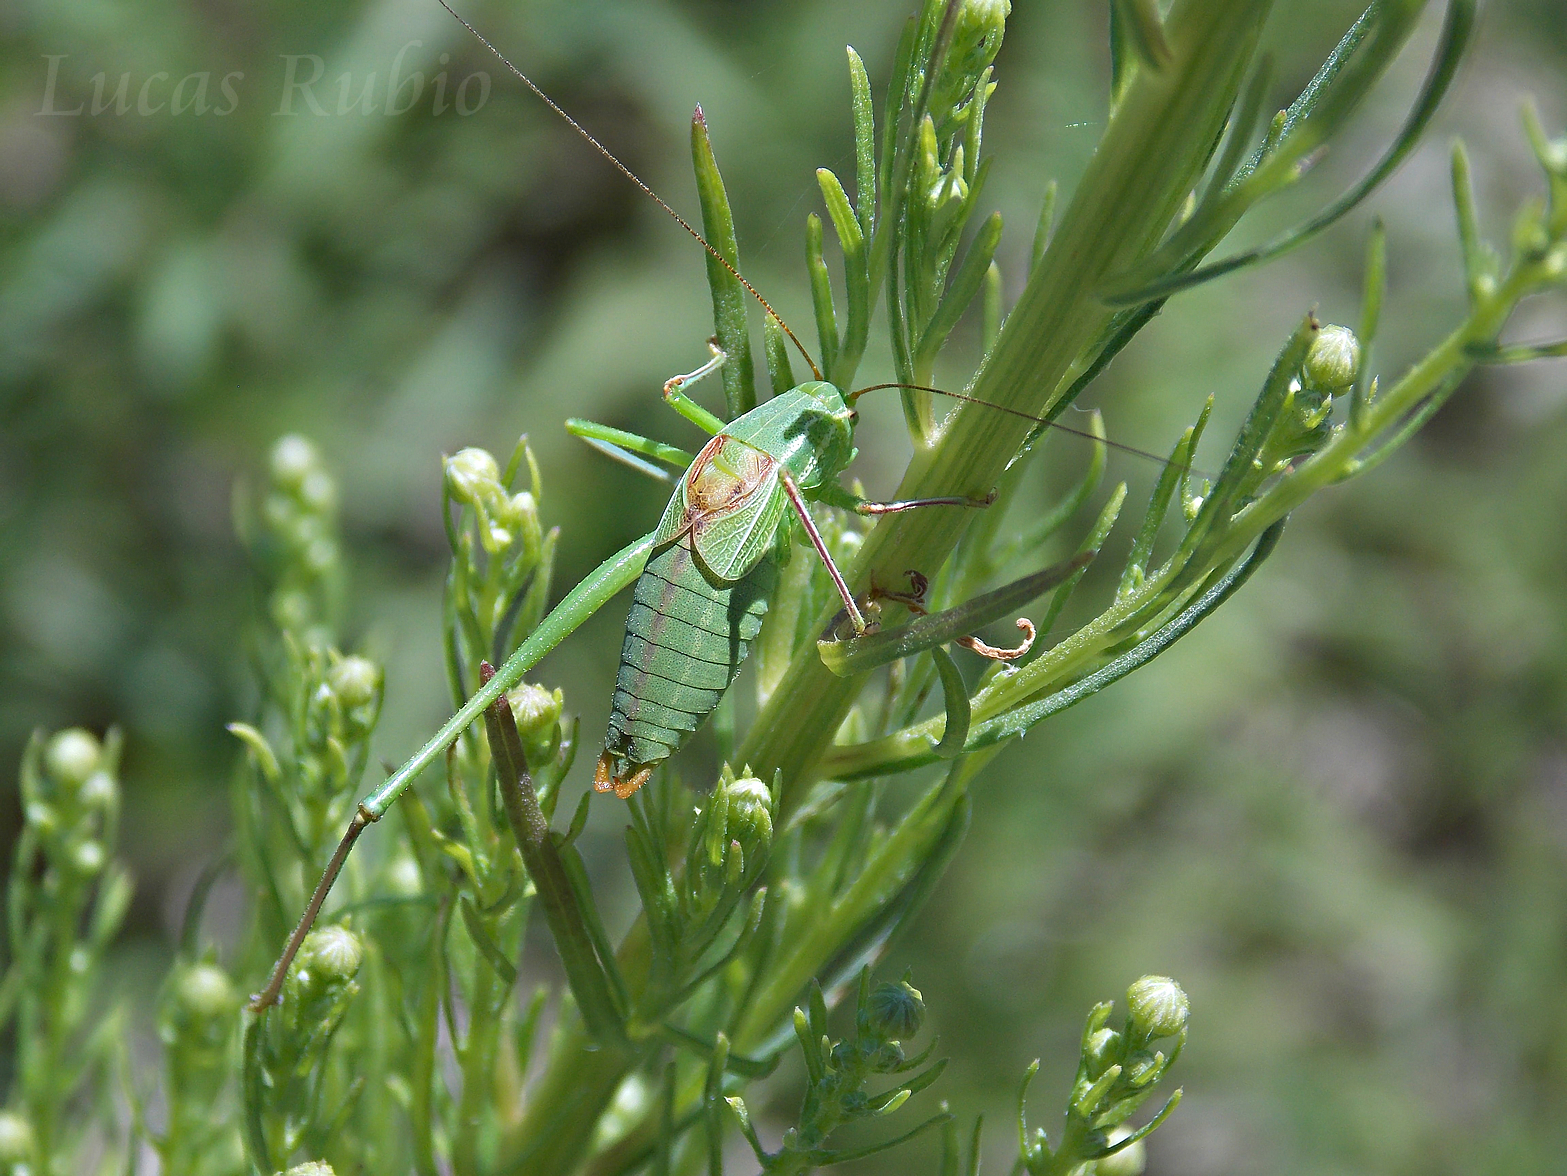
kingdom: Animalia
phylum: Arthropoda
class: Insecta
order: Orthoptera
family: Tettigoniidae
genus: Anisophya
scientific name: Anisophya brasiliensis
